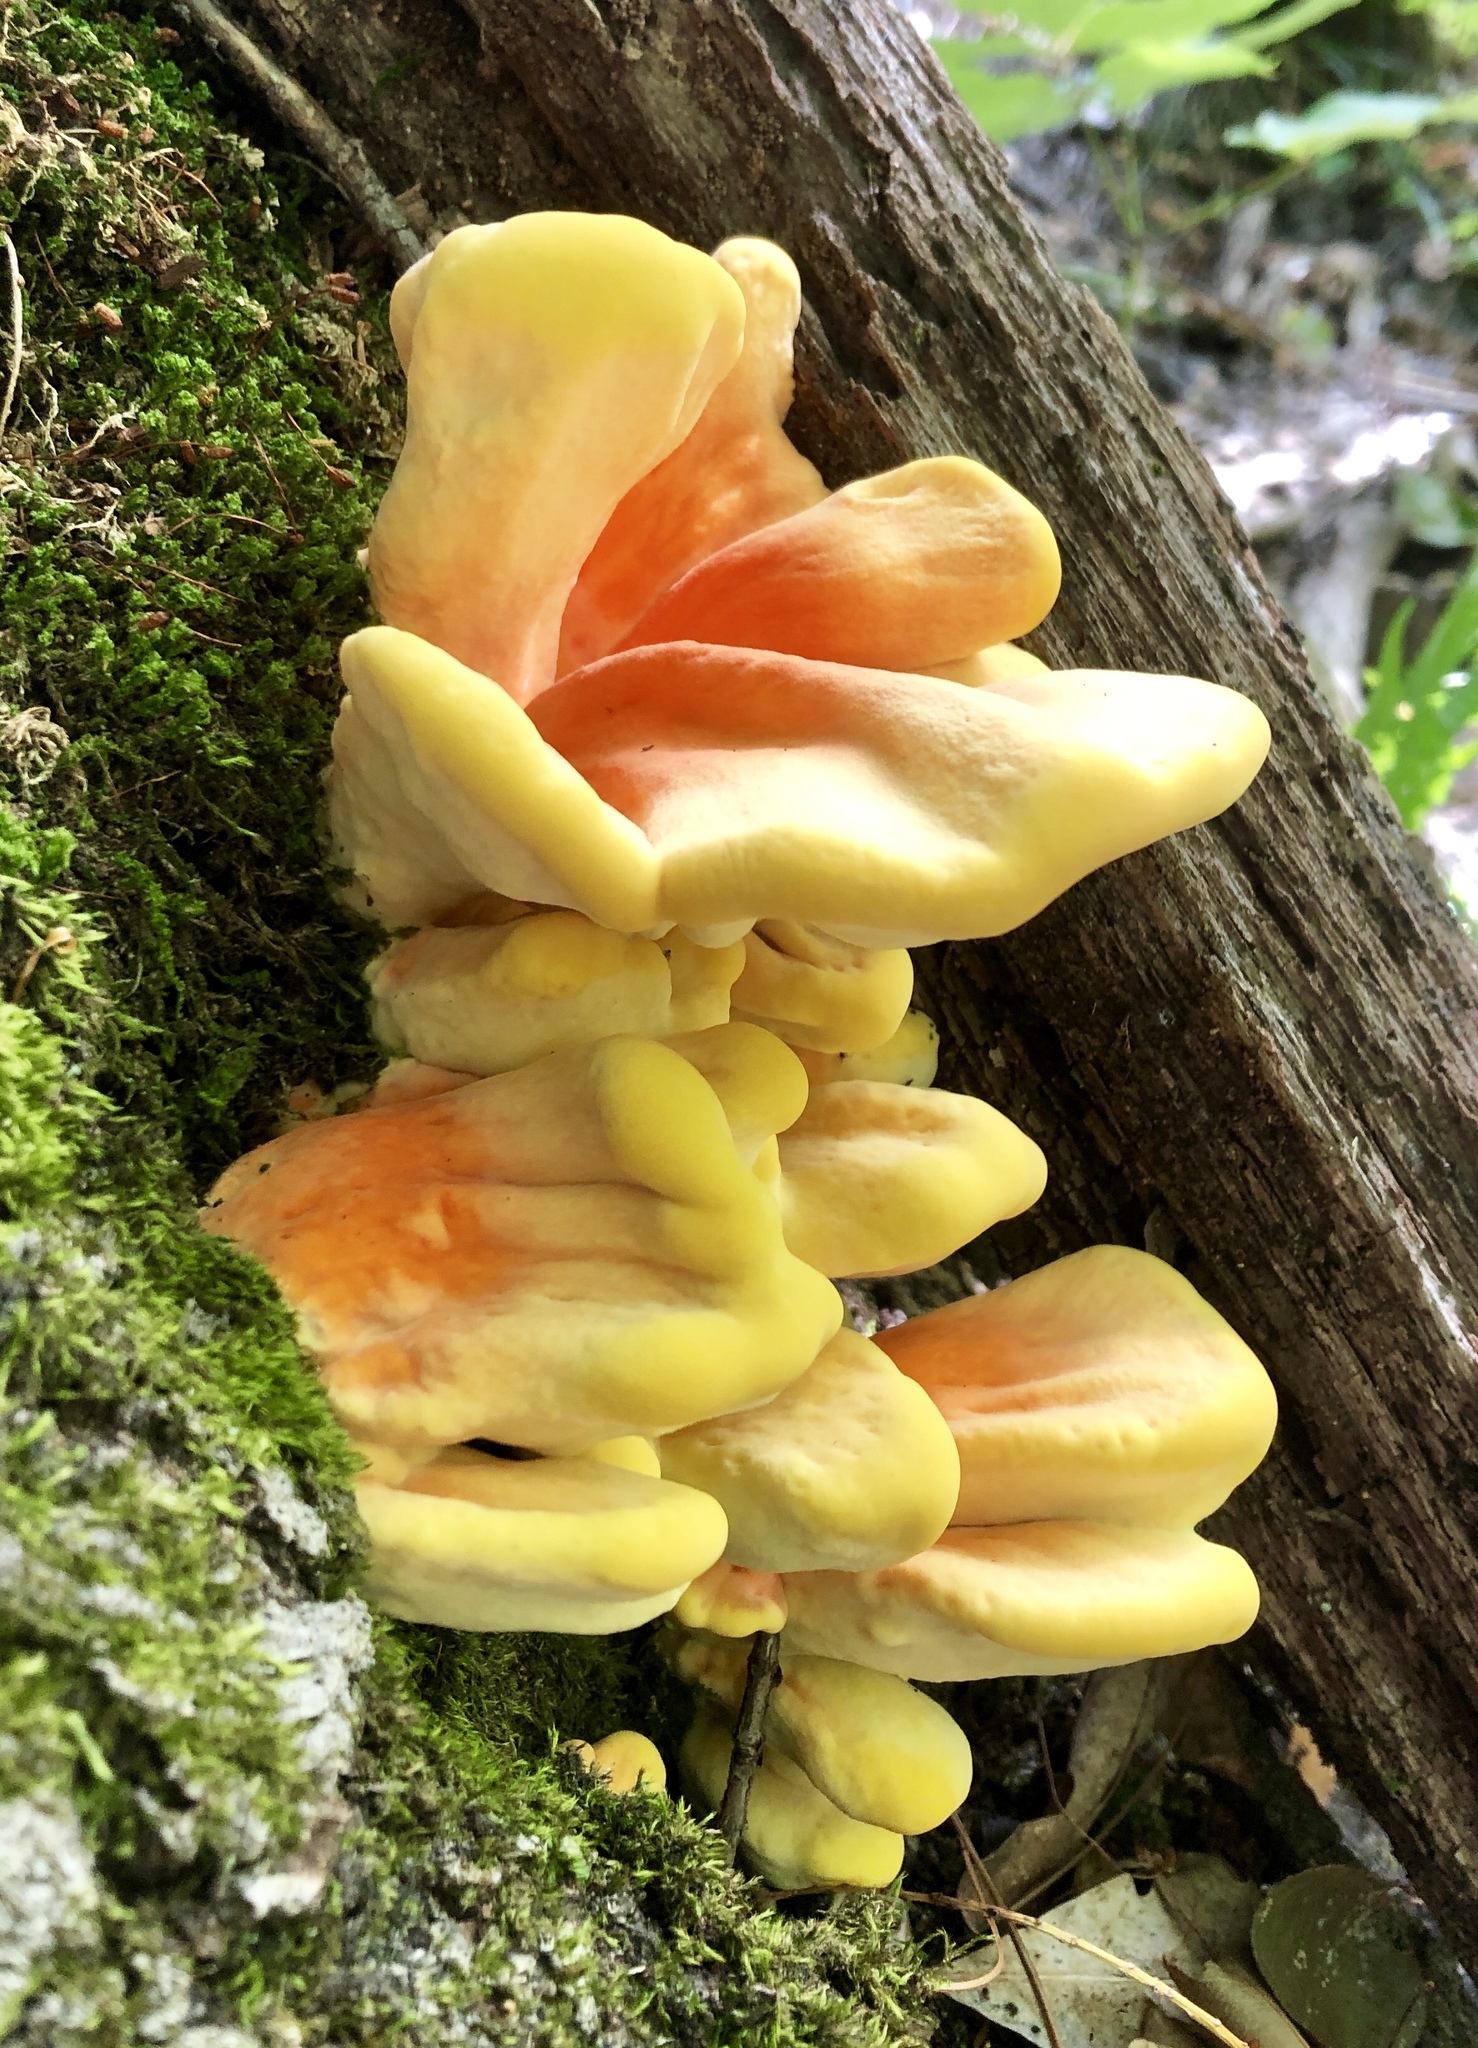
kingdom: Fungi
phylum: Basidiomycota
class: Agaricomycetes
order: Polyporales
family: Laetiporaceae
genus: Laetiporus
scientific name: Laetiporus sulphureus
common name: Chicken of the woods
